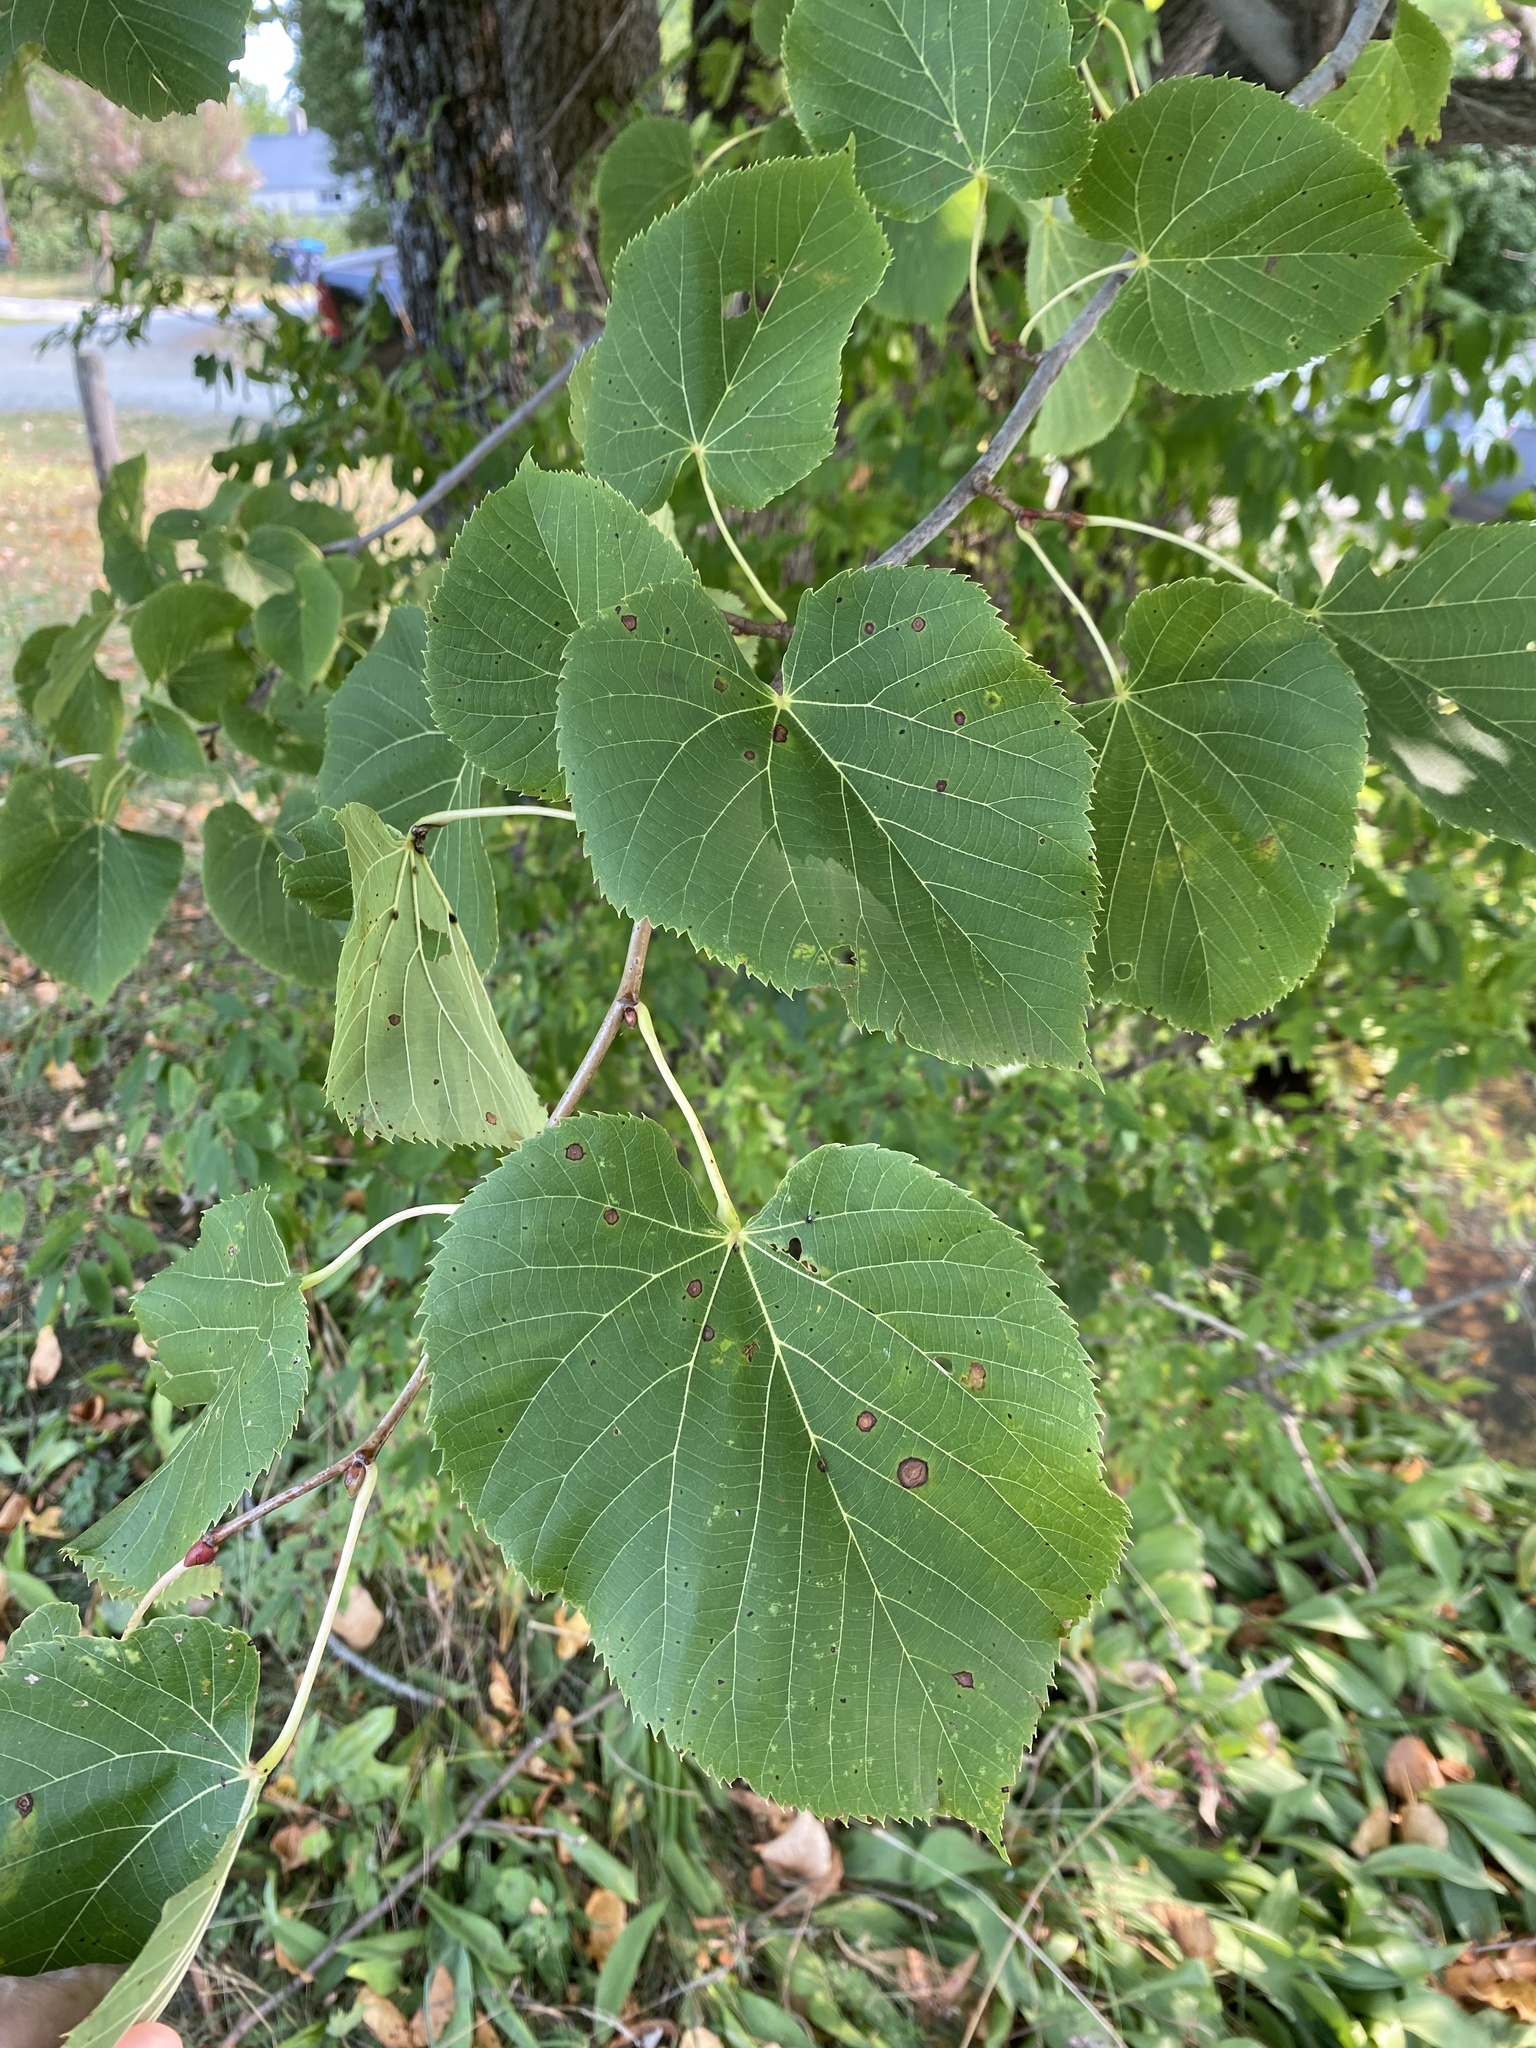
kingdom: Plantae
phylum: Tracheophyta
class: Magnoliopsida
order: Malvales
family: Malvaceae
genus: Tilia
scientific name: Tilia americana
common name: Basswood
